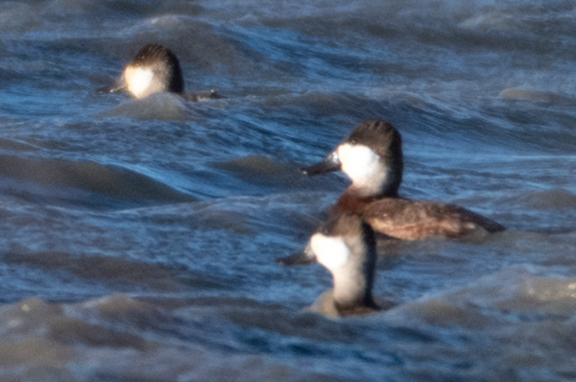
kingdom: Animalia
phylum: Chordata
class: Aves
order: Anseriformes
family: Anatidae
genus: Oxyura
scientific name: Oxyura jamaicensis
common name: Ruddy duck
